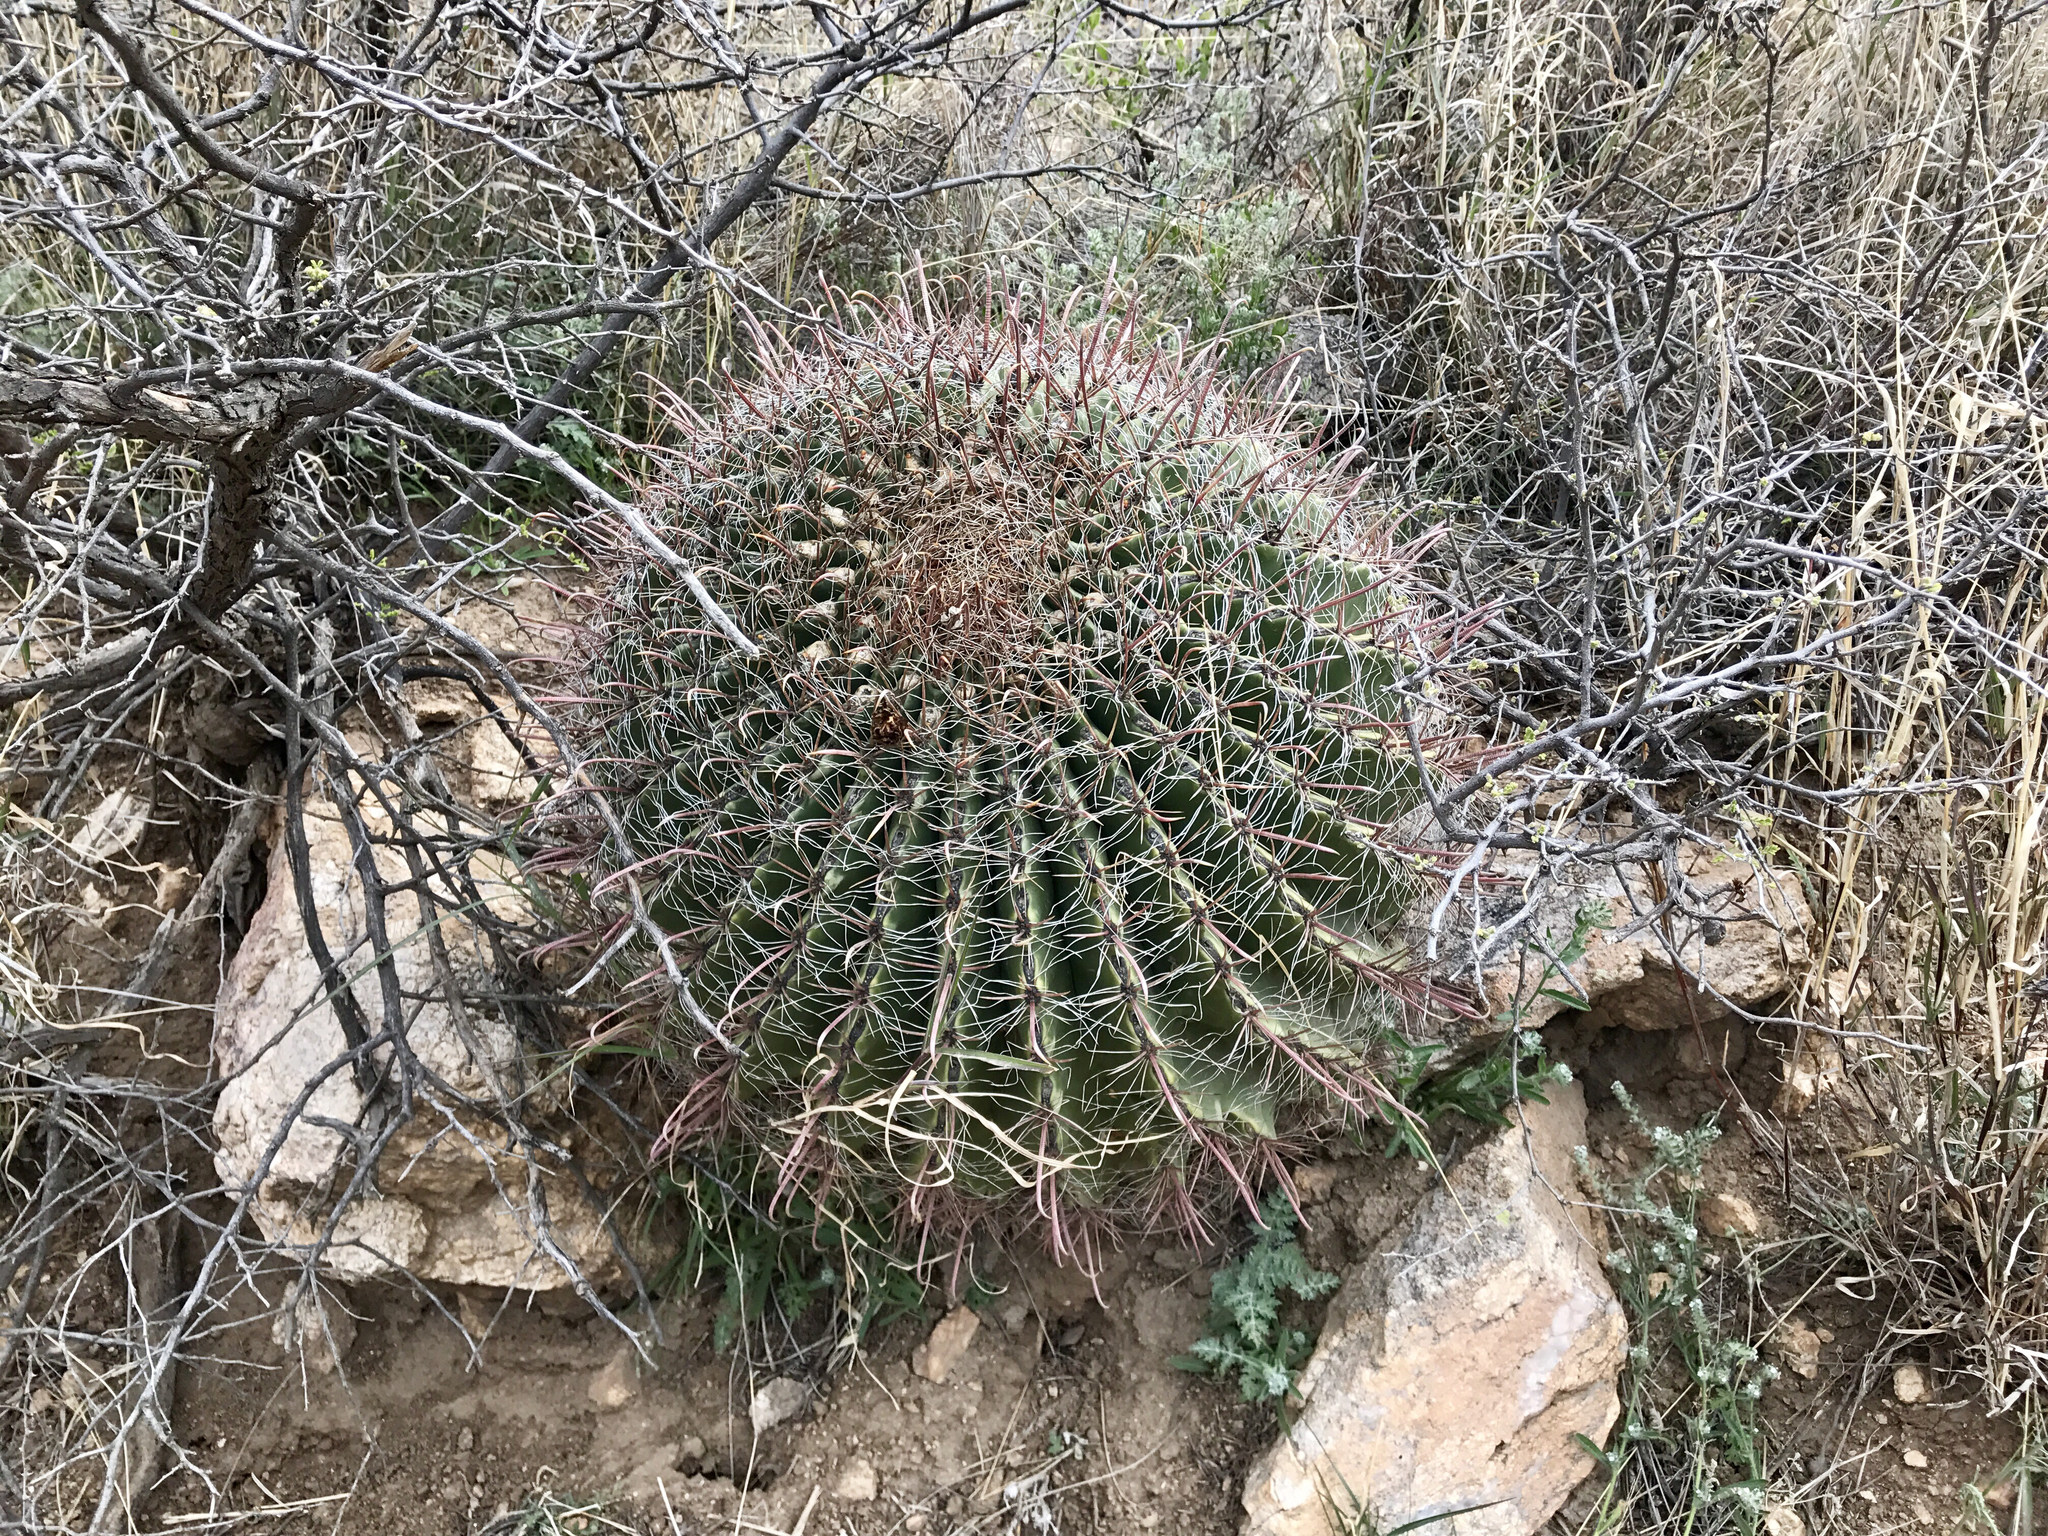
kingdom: Plantae
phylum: Tracheophyta
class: Magnoliopsida
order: Caryophyllales
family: Cactaceae
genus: Ferocactus
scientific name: Ferocactus wislizeni
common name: Candy barrel cactus
